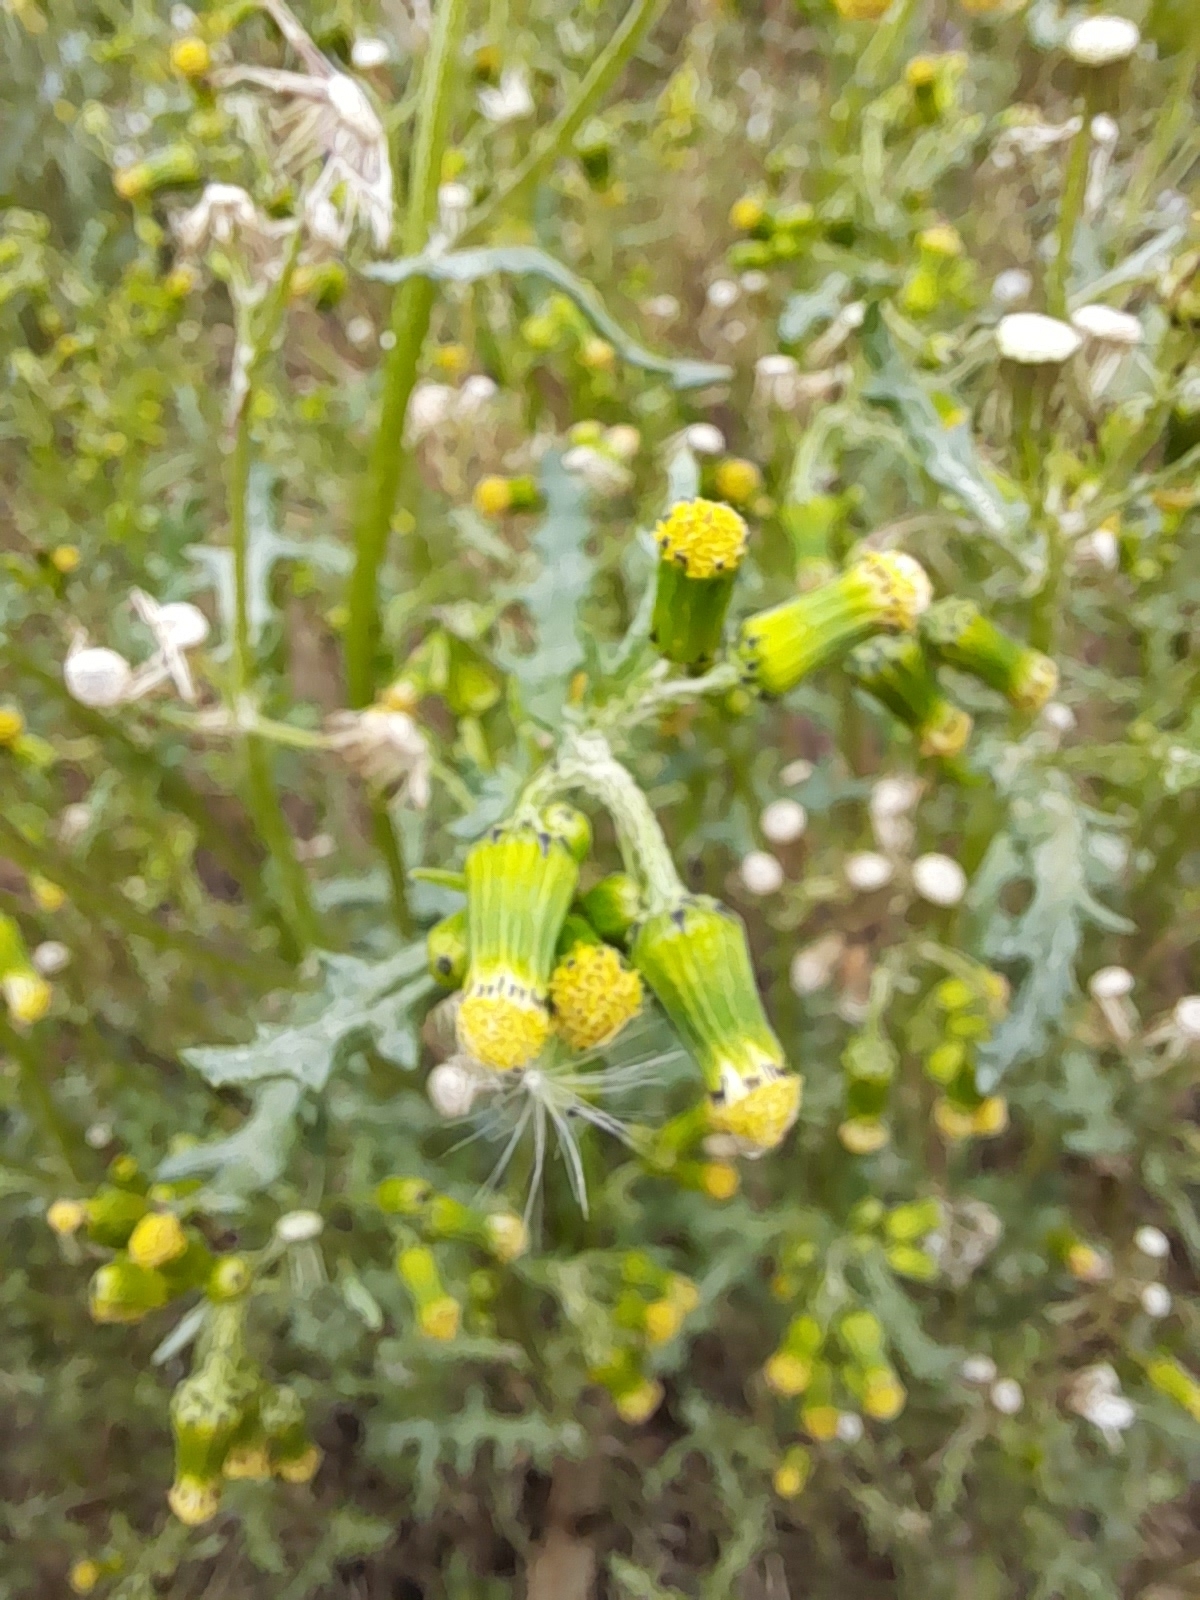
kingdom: Plantae
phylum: Tracheophyta
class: Magnoliopsida
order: Asterales
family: Asteraceae
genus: Senecio
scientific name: Senecio vulgaris
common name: Old-man-in-the-spring
